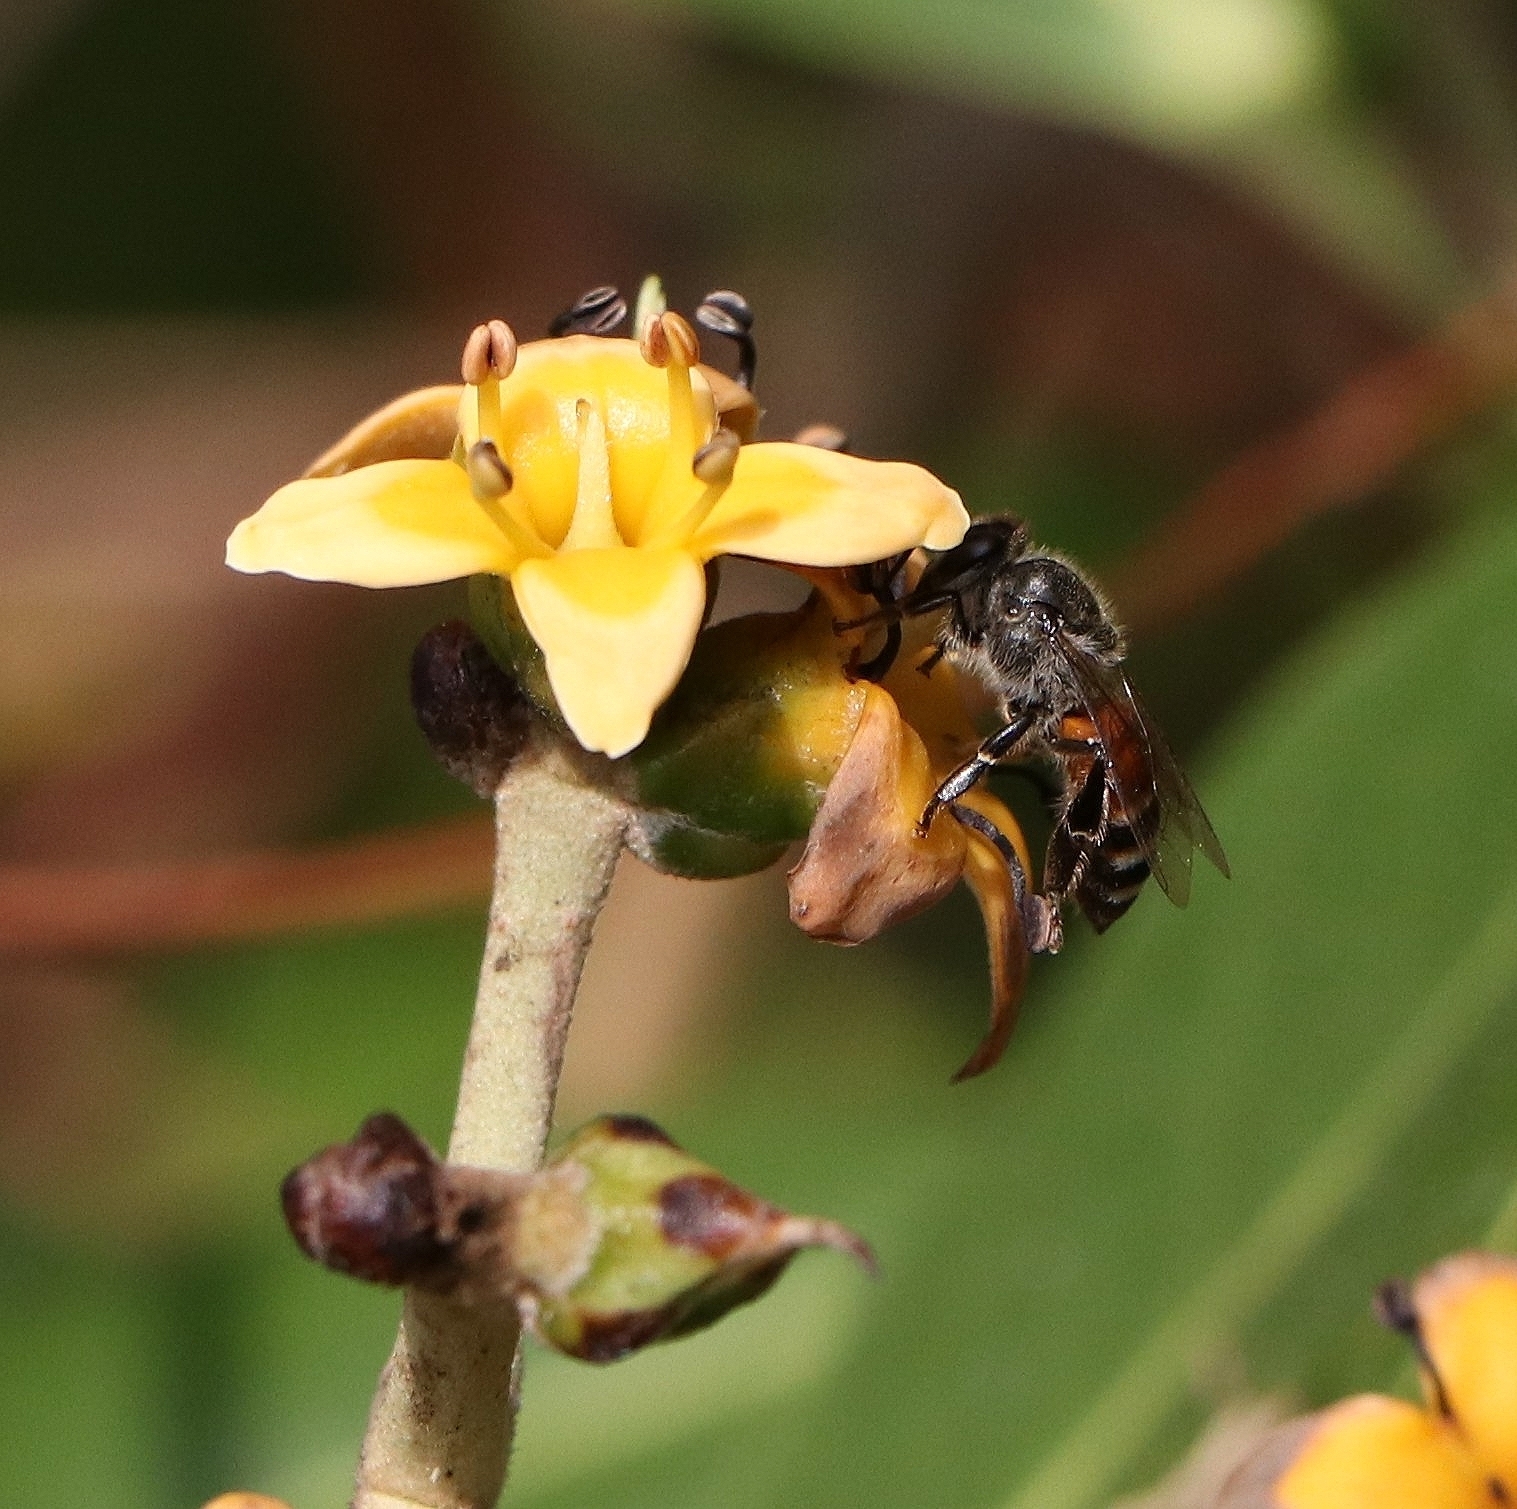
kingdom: Animalia
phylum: Arthropoda
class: Insecta
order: Hymenoptera
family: Apidae
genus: Apis
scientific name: Apis florea
